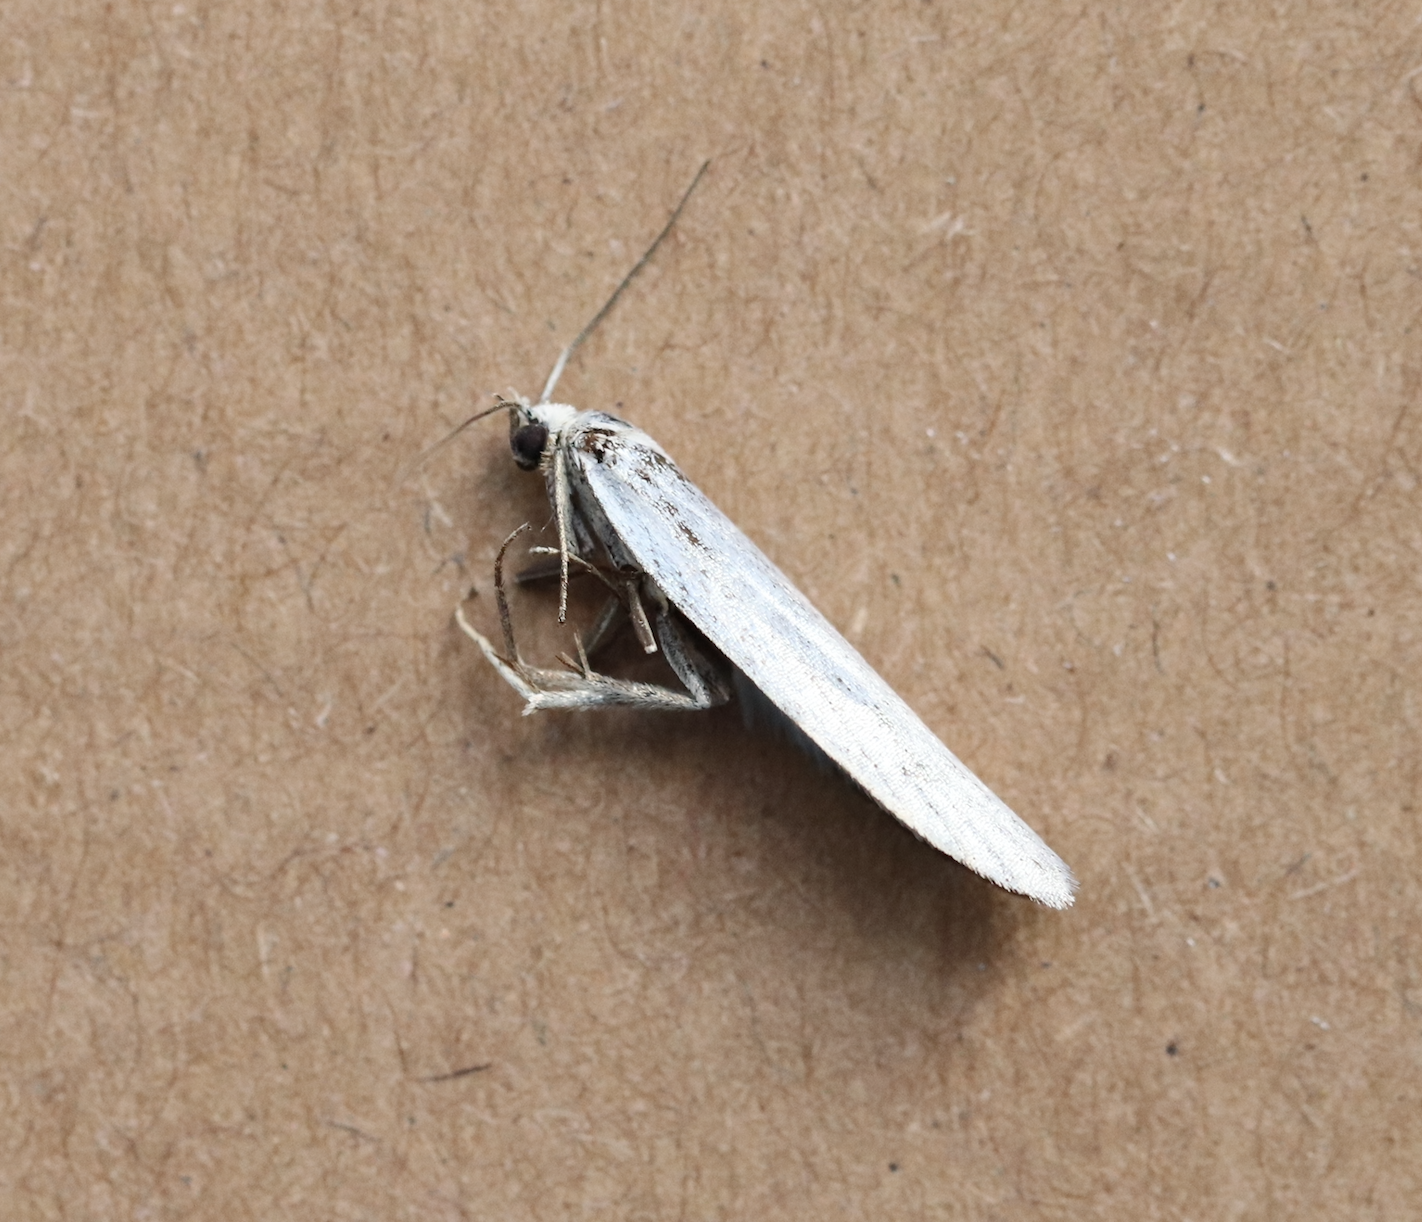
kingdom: Animalia
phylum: Arthropoda
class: Insecta
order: Lepidoptera
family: Tortricidae
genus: Eana
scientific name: Eana argentana
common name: Silver shade
